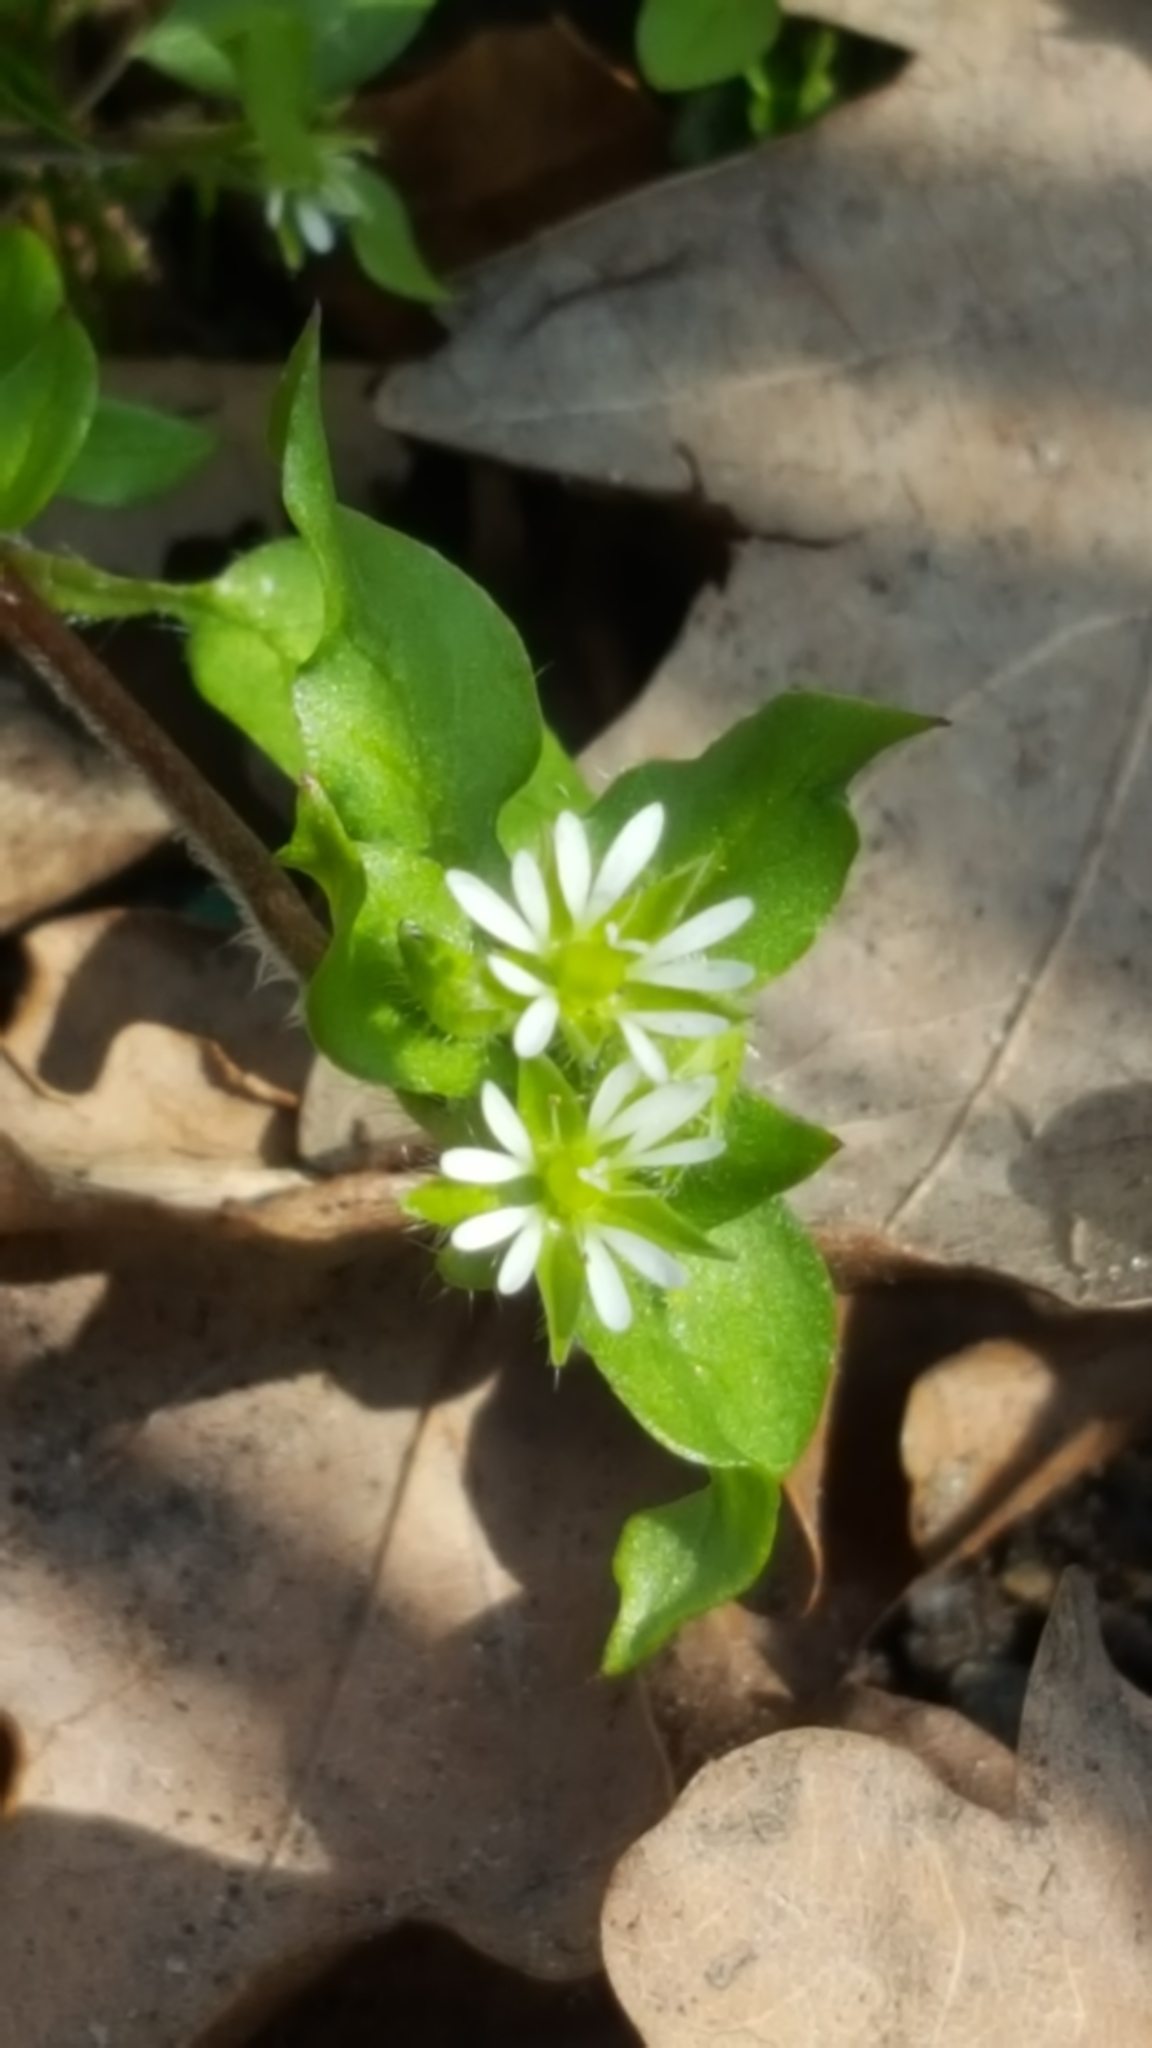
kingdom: Plantae
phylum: Tracheophyta
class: Magnoliopsida
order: Caryophyllales
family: Caryophyllaceae
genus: Stellaria
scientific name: Stellaria media
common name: Common chickweed
